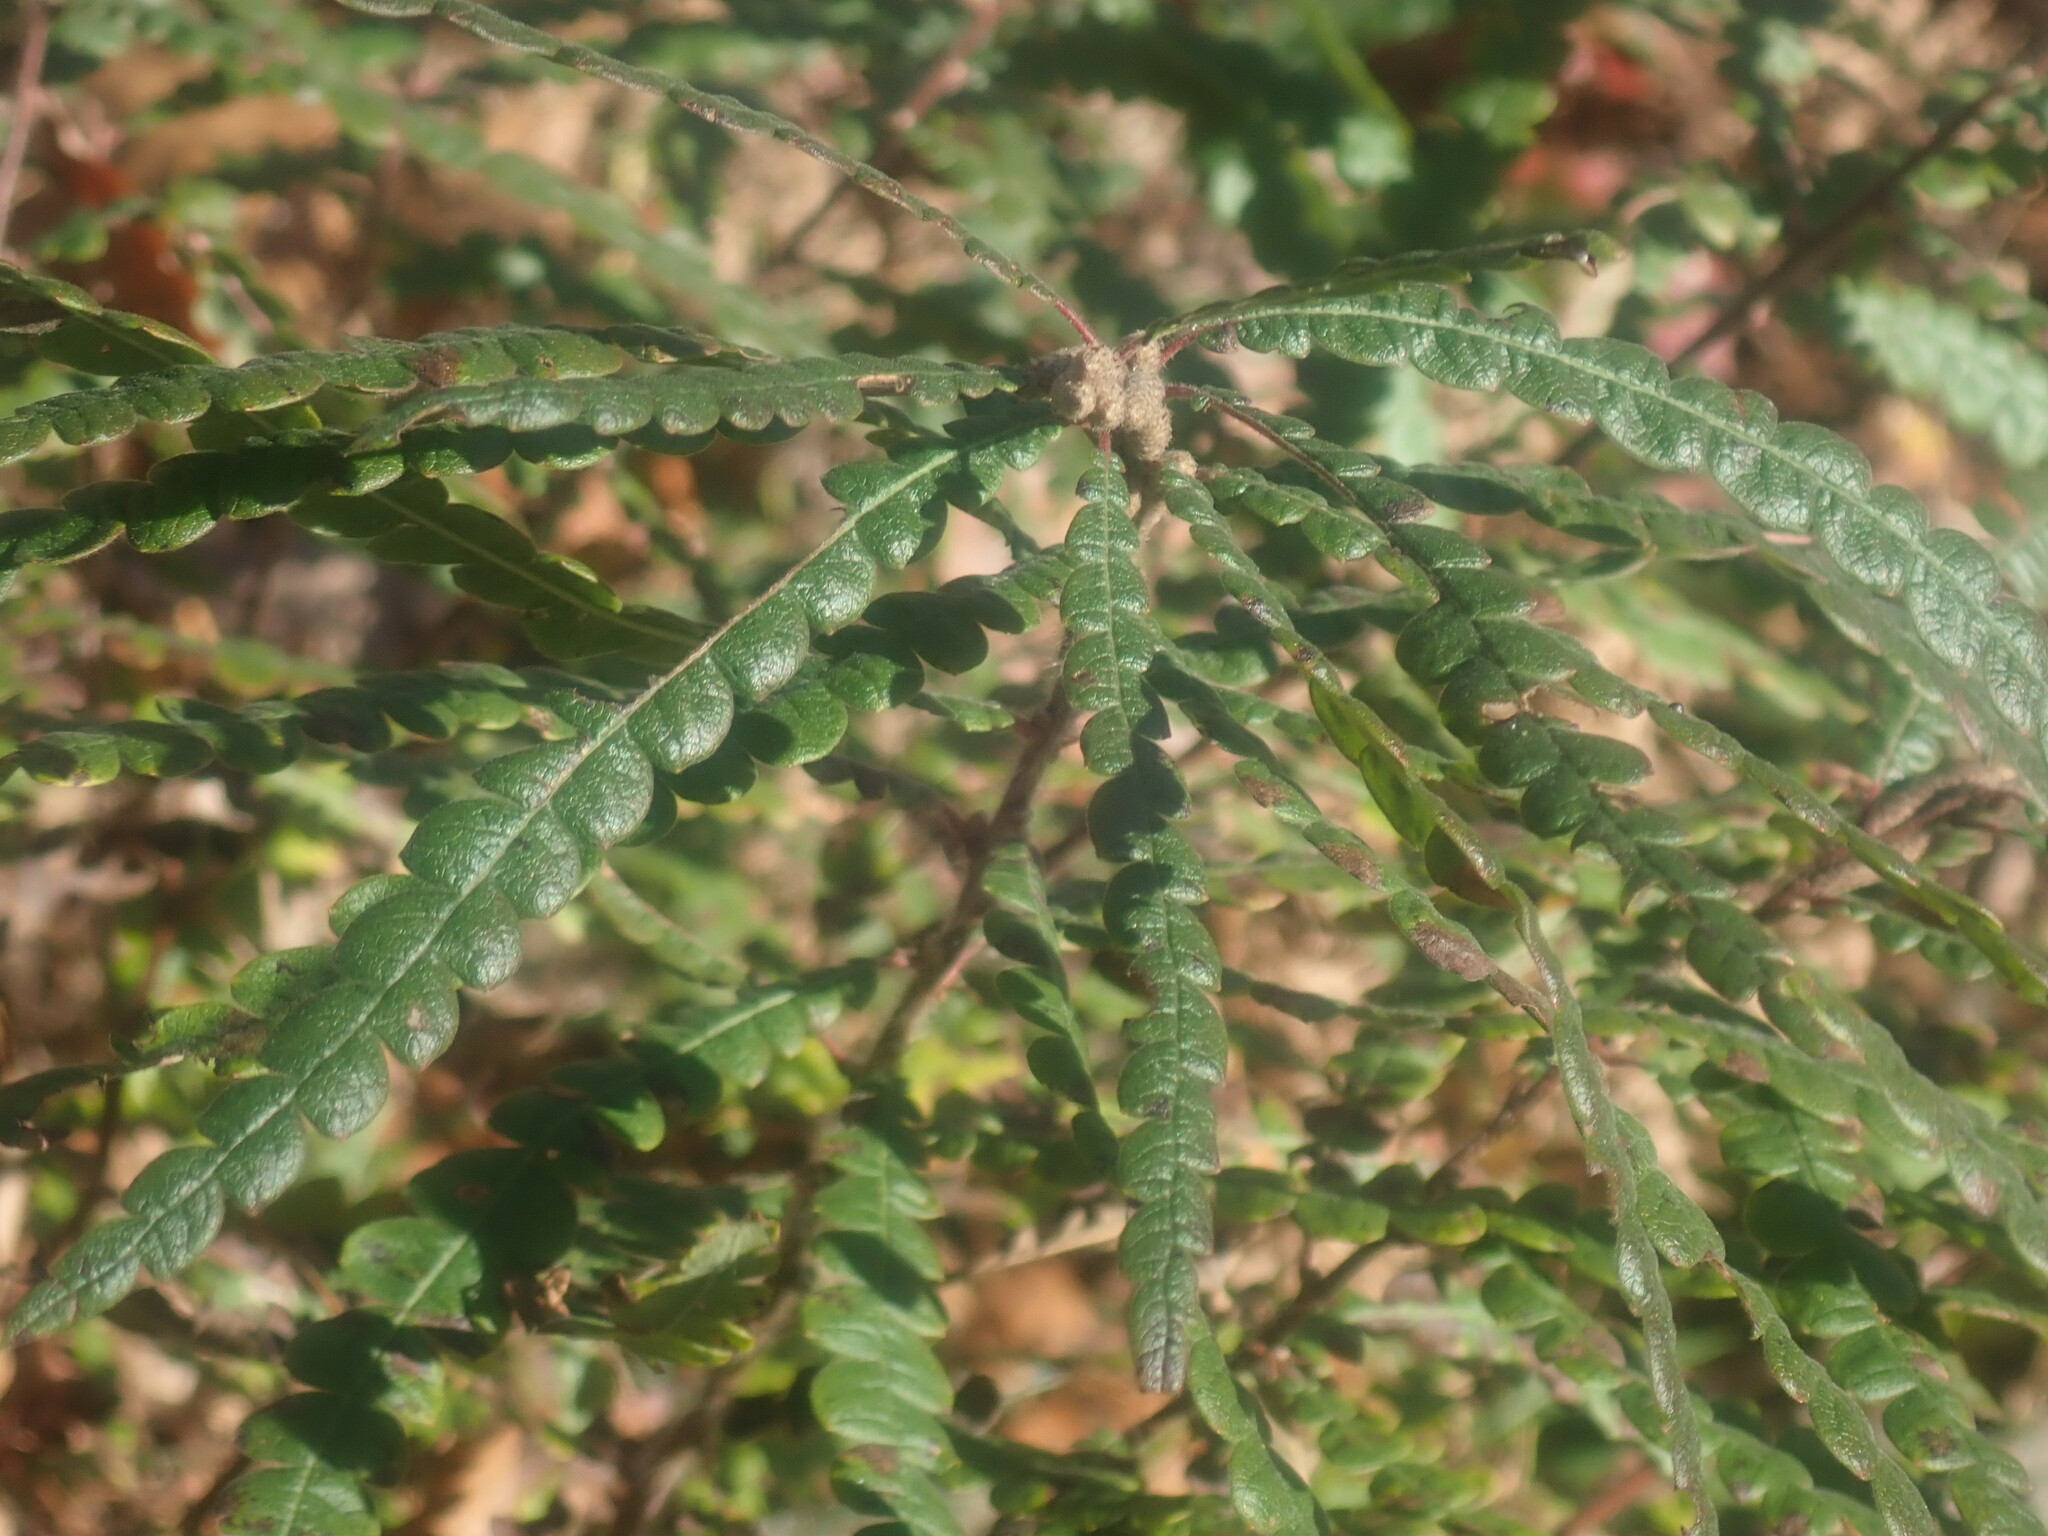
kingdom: Plantae
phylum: Tracheophyta
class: Magnoliopsida
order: Fagales
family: Myricaceae
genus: Comptonia
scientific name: Comptonia peregrina
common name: Sweet-fern
